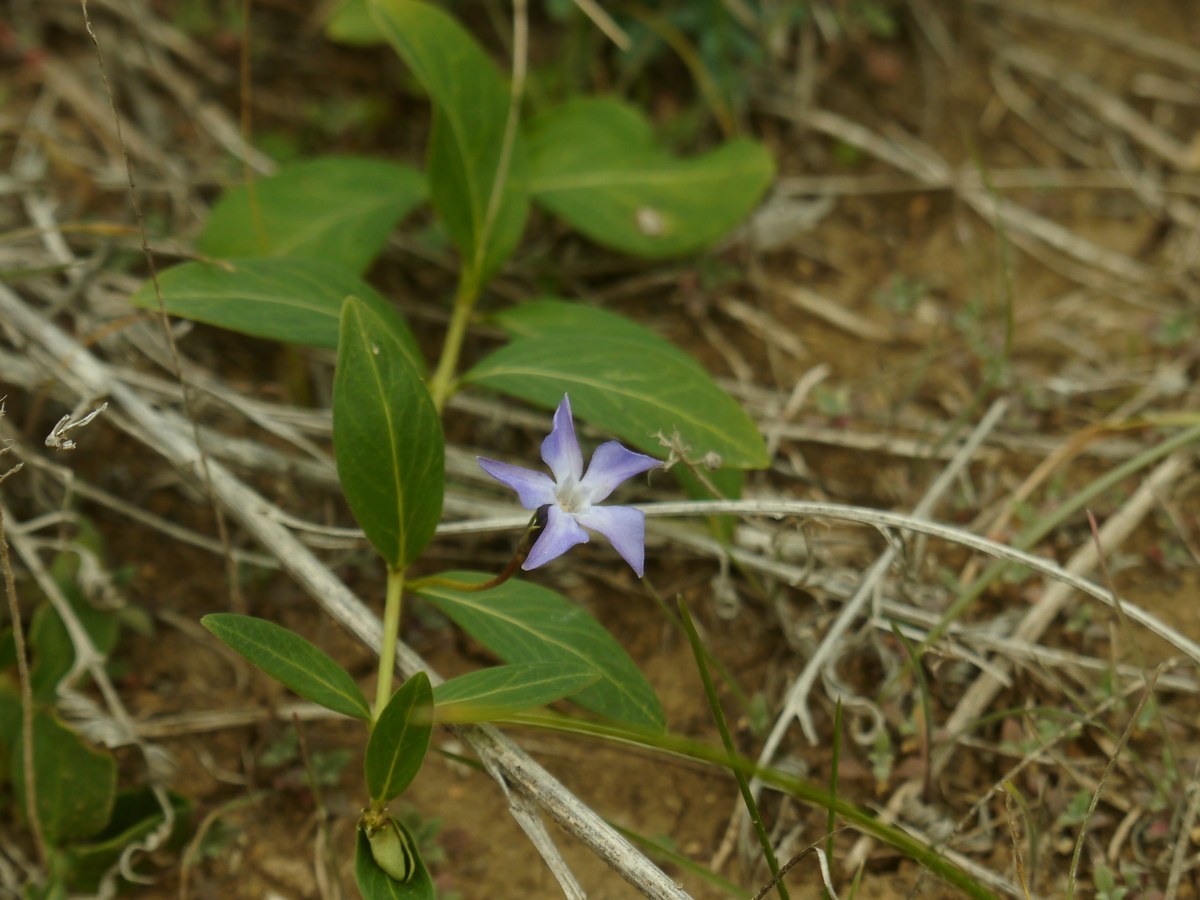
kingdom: Plantae
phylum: Tracheophyta
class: Magnoliopsida
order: Gentianales
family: Apocynaceae
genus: Vinca
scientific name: Vinca herbacea
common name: Herbaceous periwinkle
